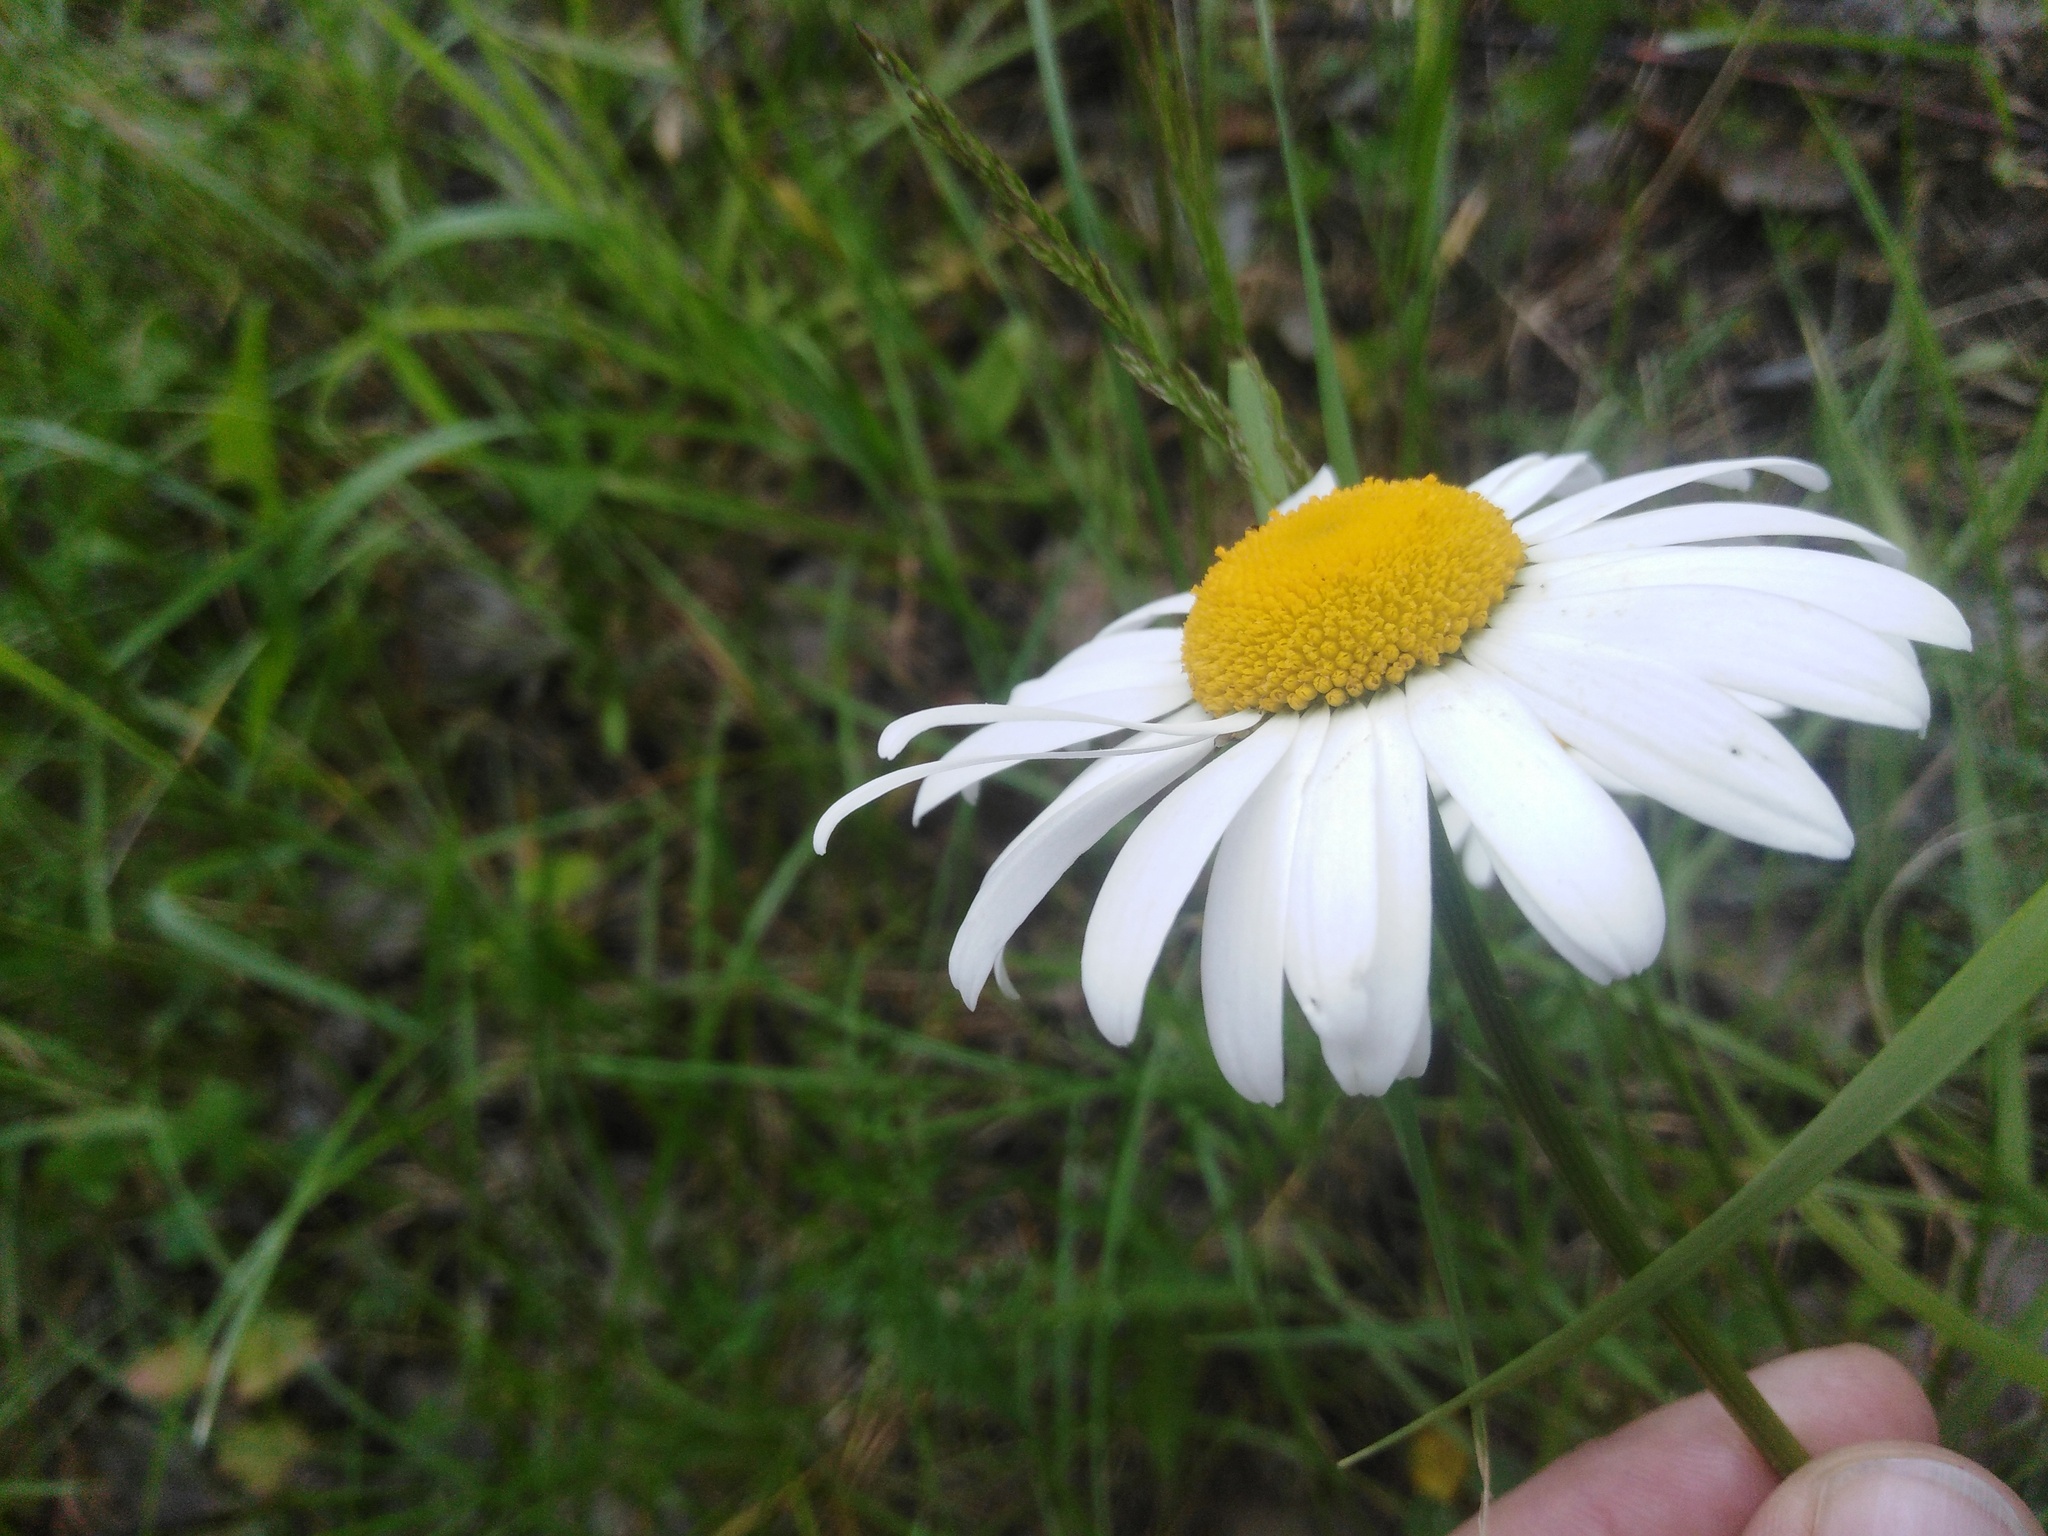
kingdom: Plantae
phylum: Tracheophyta
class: Magnoliopsida
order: Asterales
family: Asteraceae
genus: Leucanthemum
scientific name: Leucanthemum ircutianum
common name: Daisy
